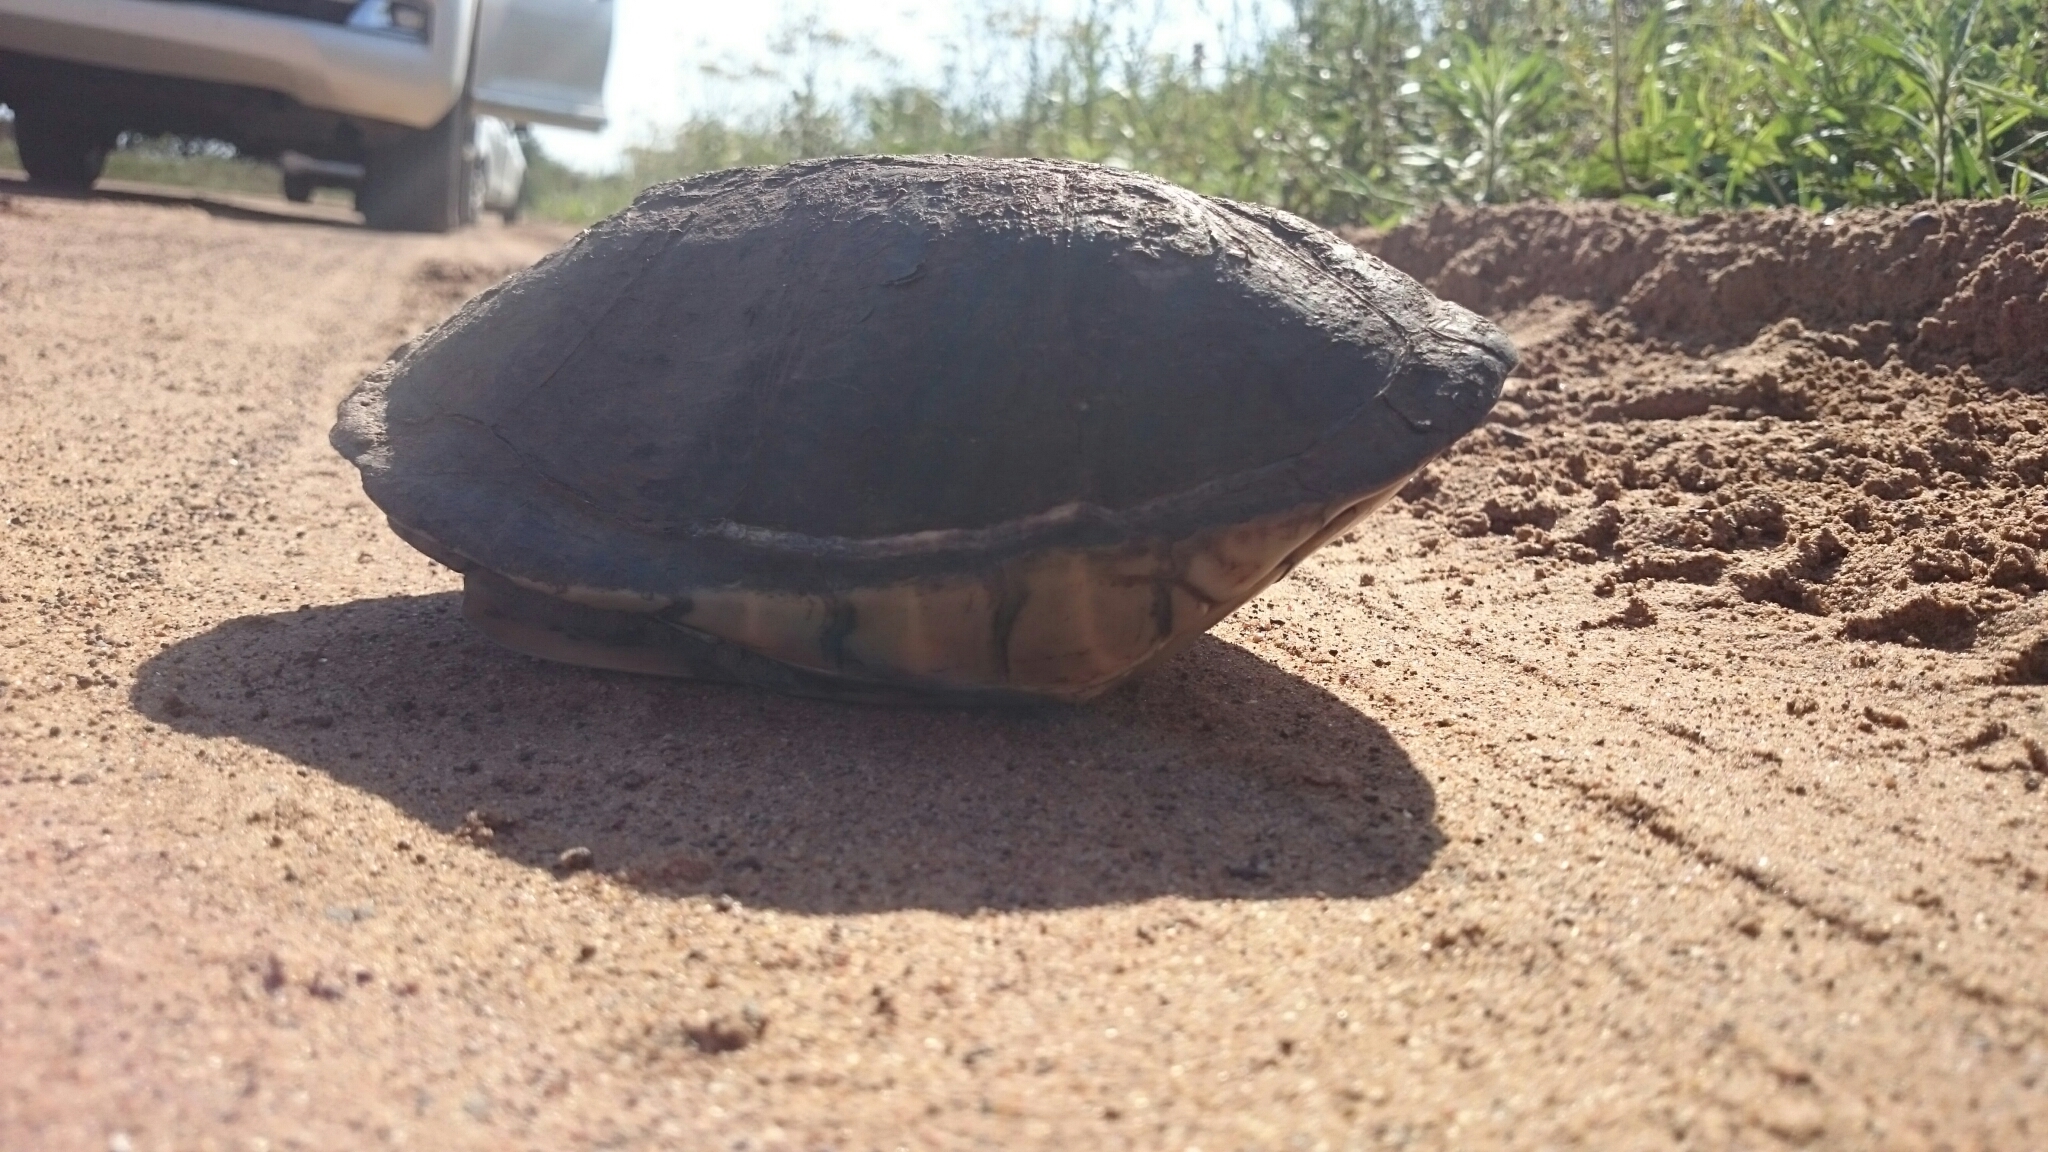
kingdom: Animalia
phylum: Chordata
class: Testudines
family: Pelomedusidae
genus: Pelusios
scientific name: Pelusios castanoides
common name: Yellow-bellied mud turtle
